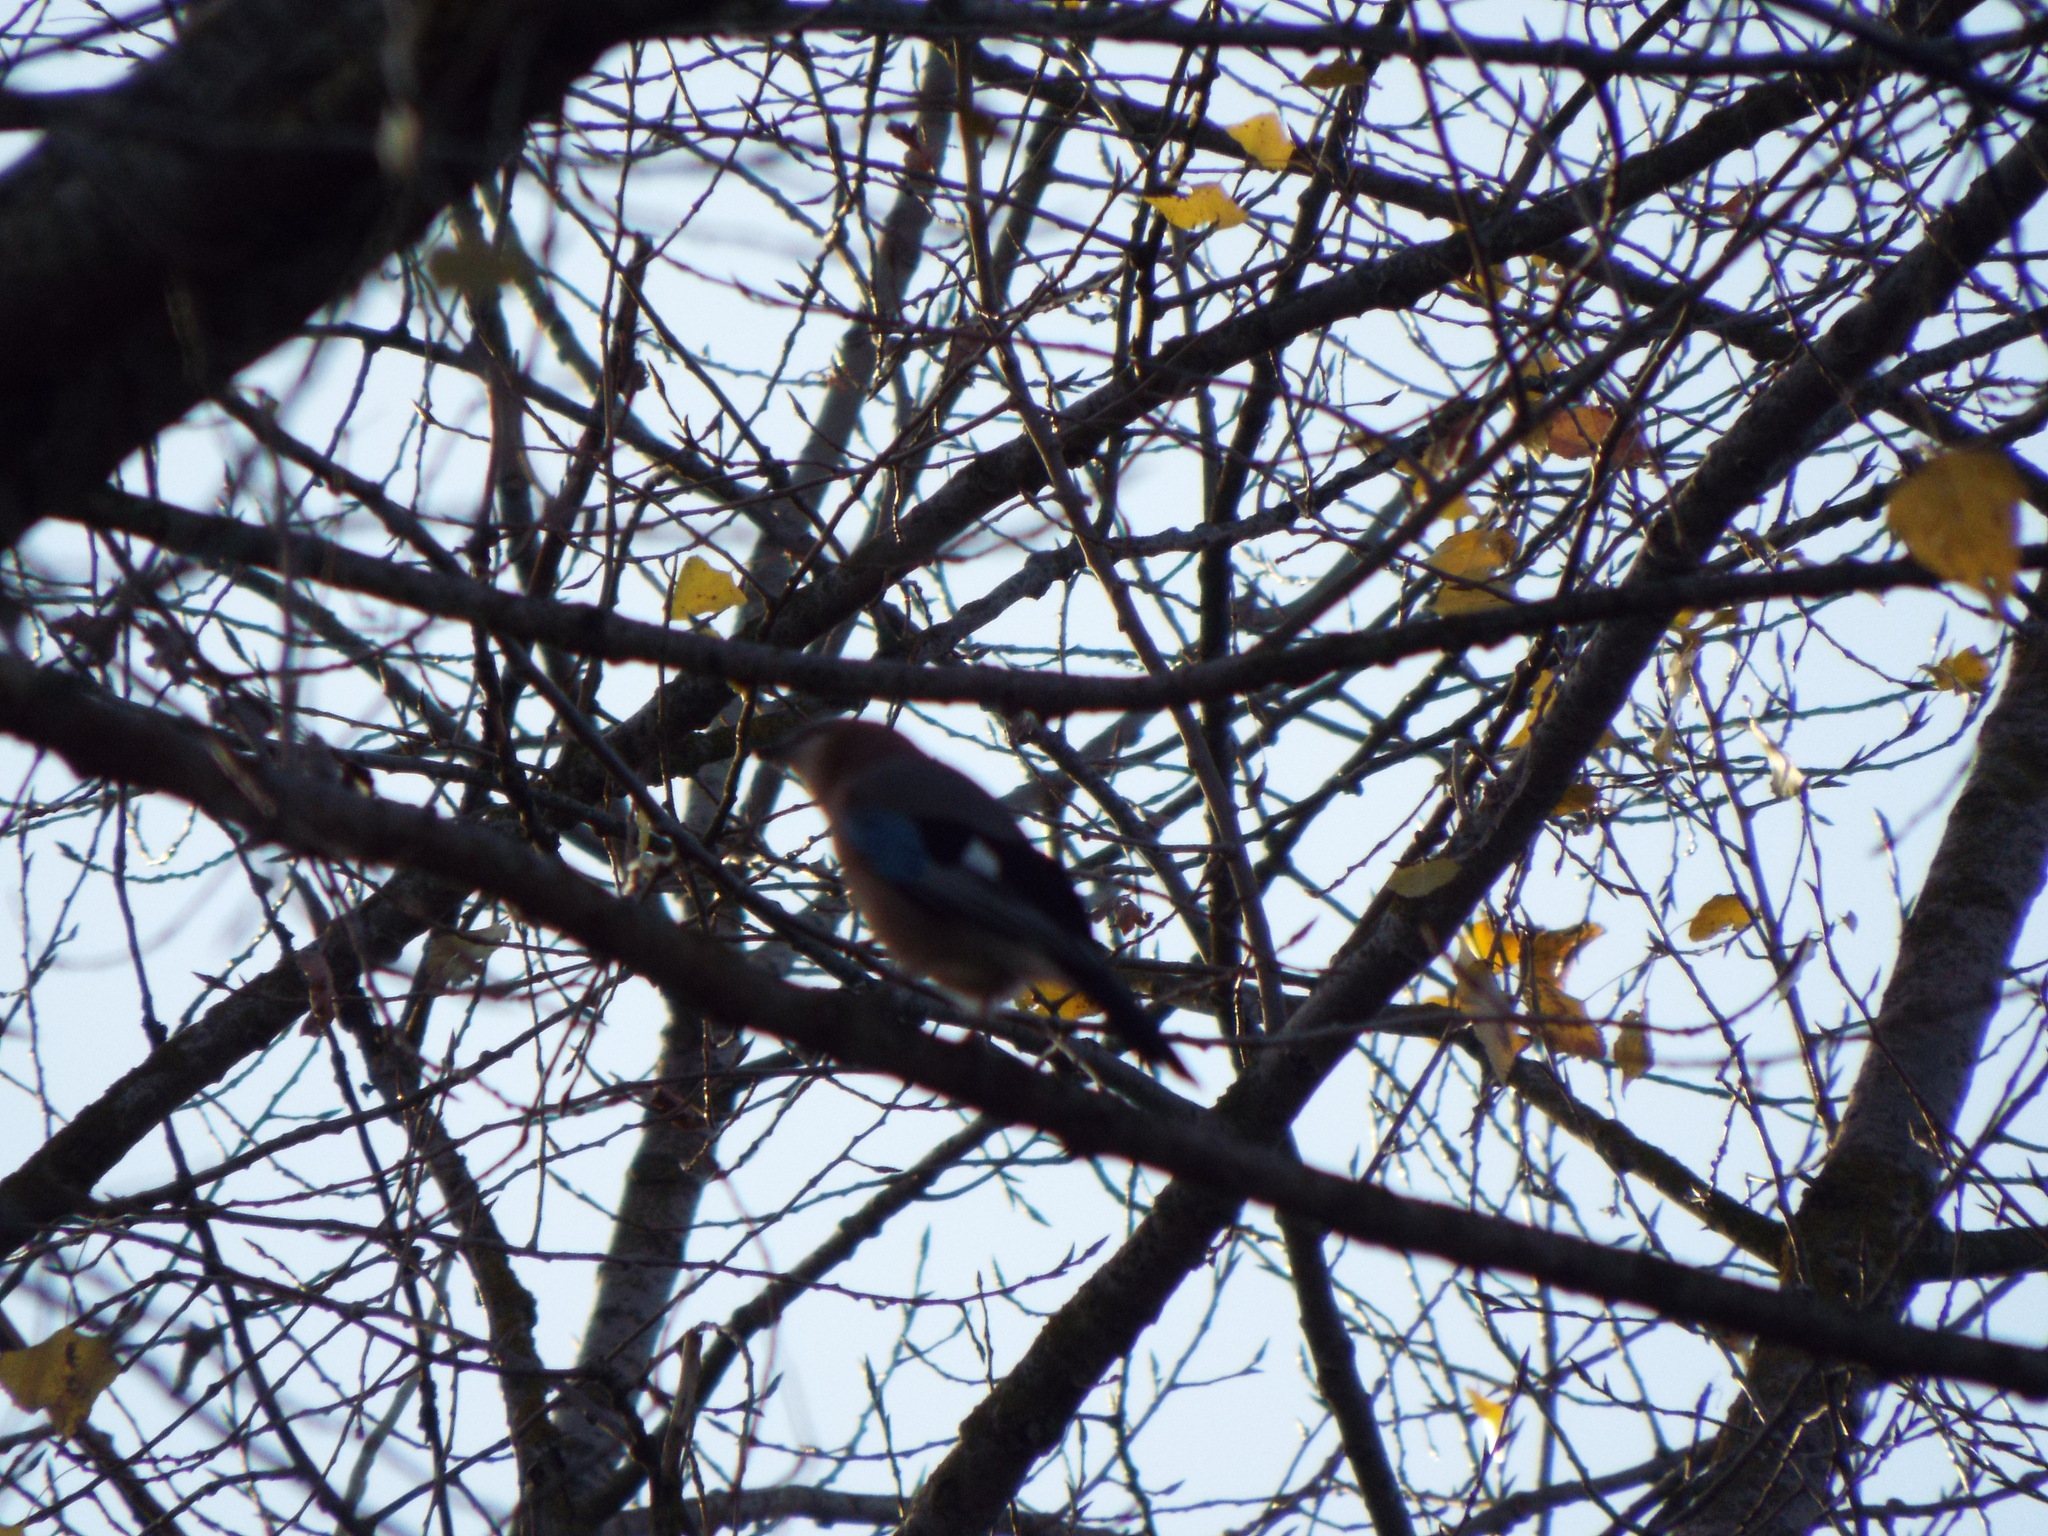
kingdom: Animalia
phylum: Chordata
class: Aves
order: Passeriformes
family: Corvidae
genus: Garrulus
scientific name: Garrulus glandarius
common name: Eurasian jay
